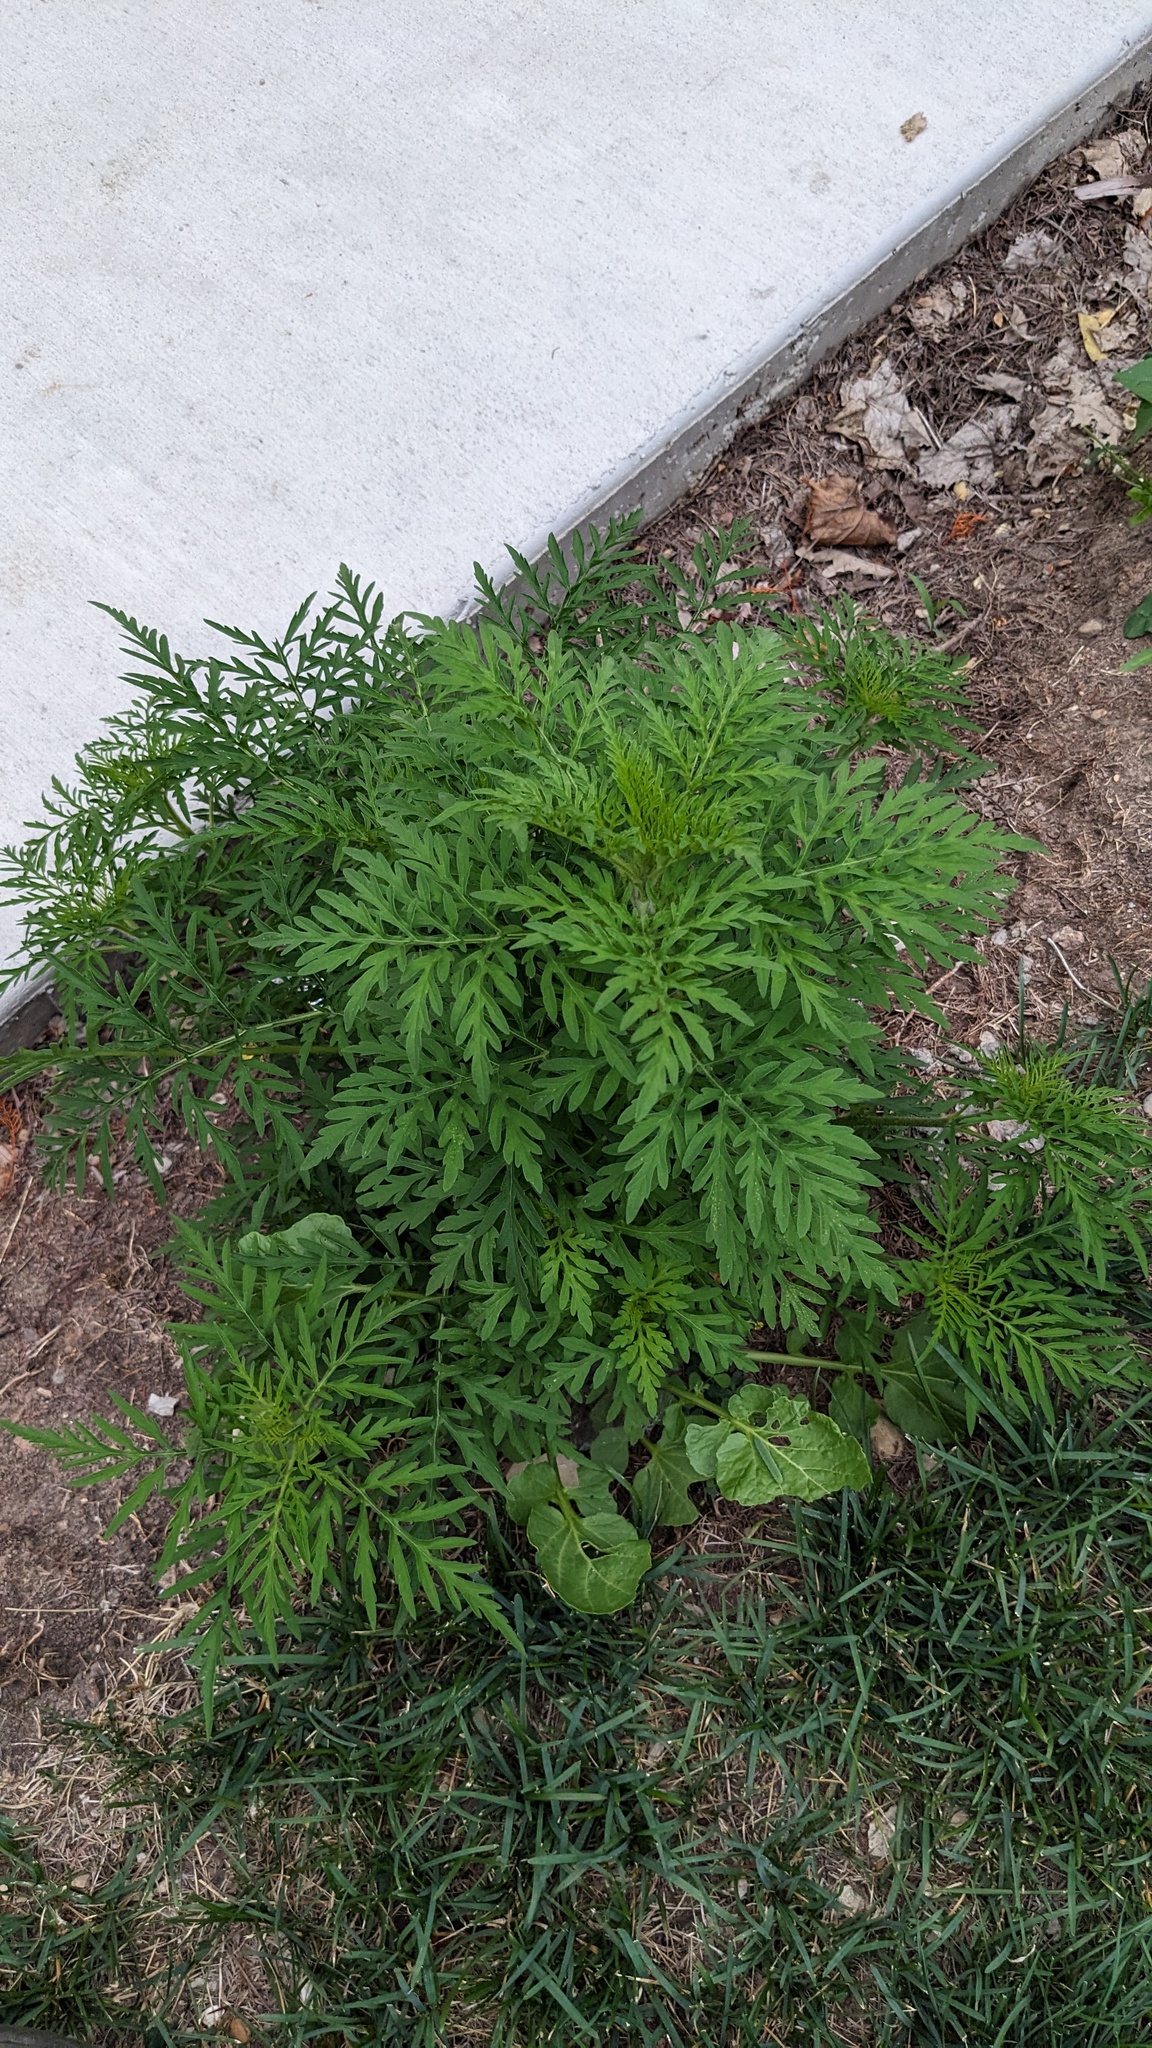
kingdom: Plantae
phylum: Tracheophyta
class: Magnoliopsida
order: Asterales
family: Asteraceae
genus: Ambrosia
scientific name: Ambrosia artemisiifolia
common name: Annual ragweed
